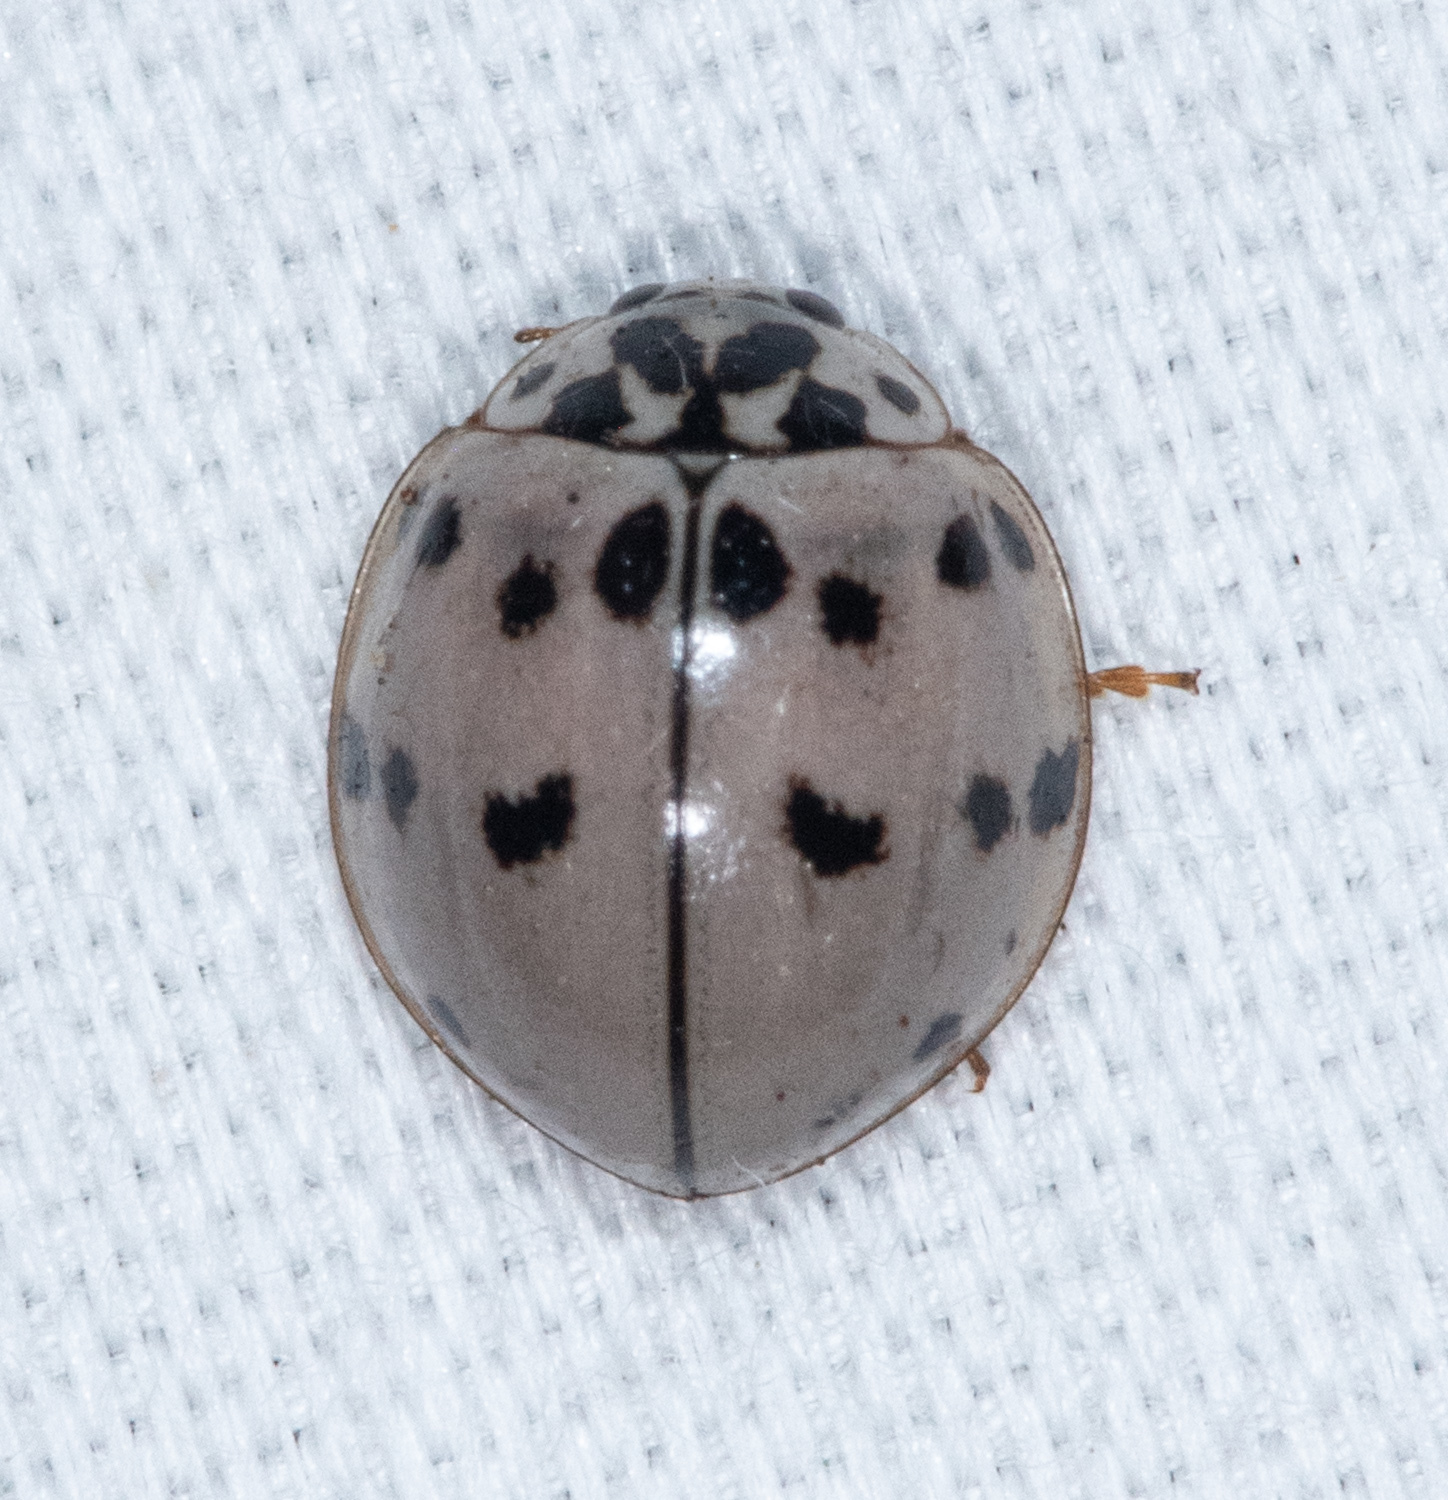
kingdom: Animalia
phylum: Arthropoda
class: Insecta
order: Coleoptera
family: Coccinellidae
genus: Olla
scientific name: Olla v-nigrum
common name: Ashy gray lady beetle
